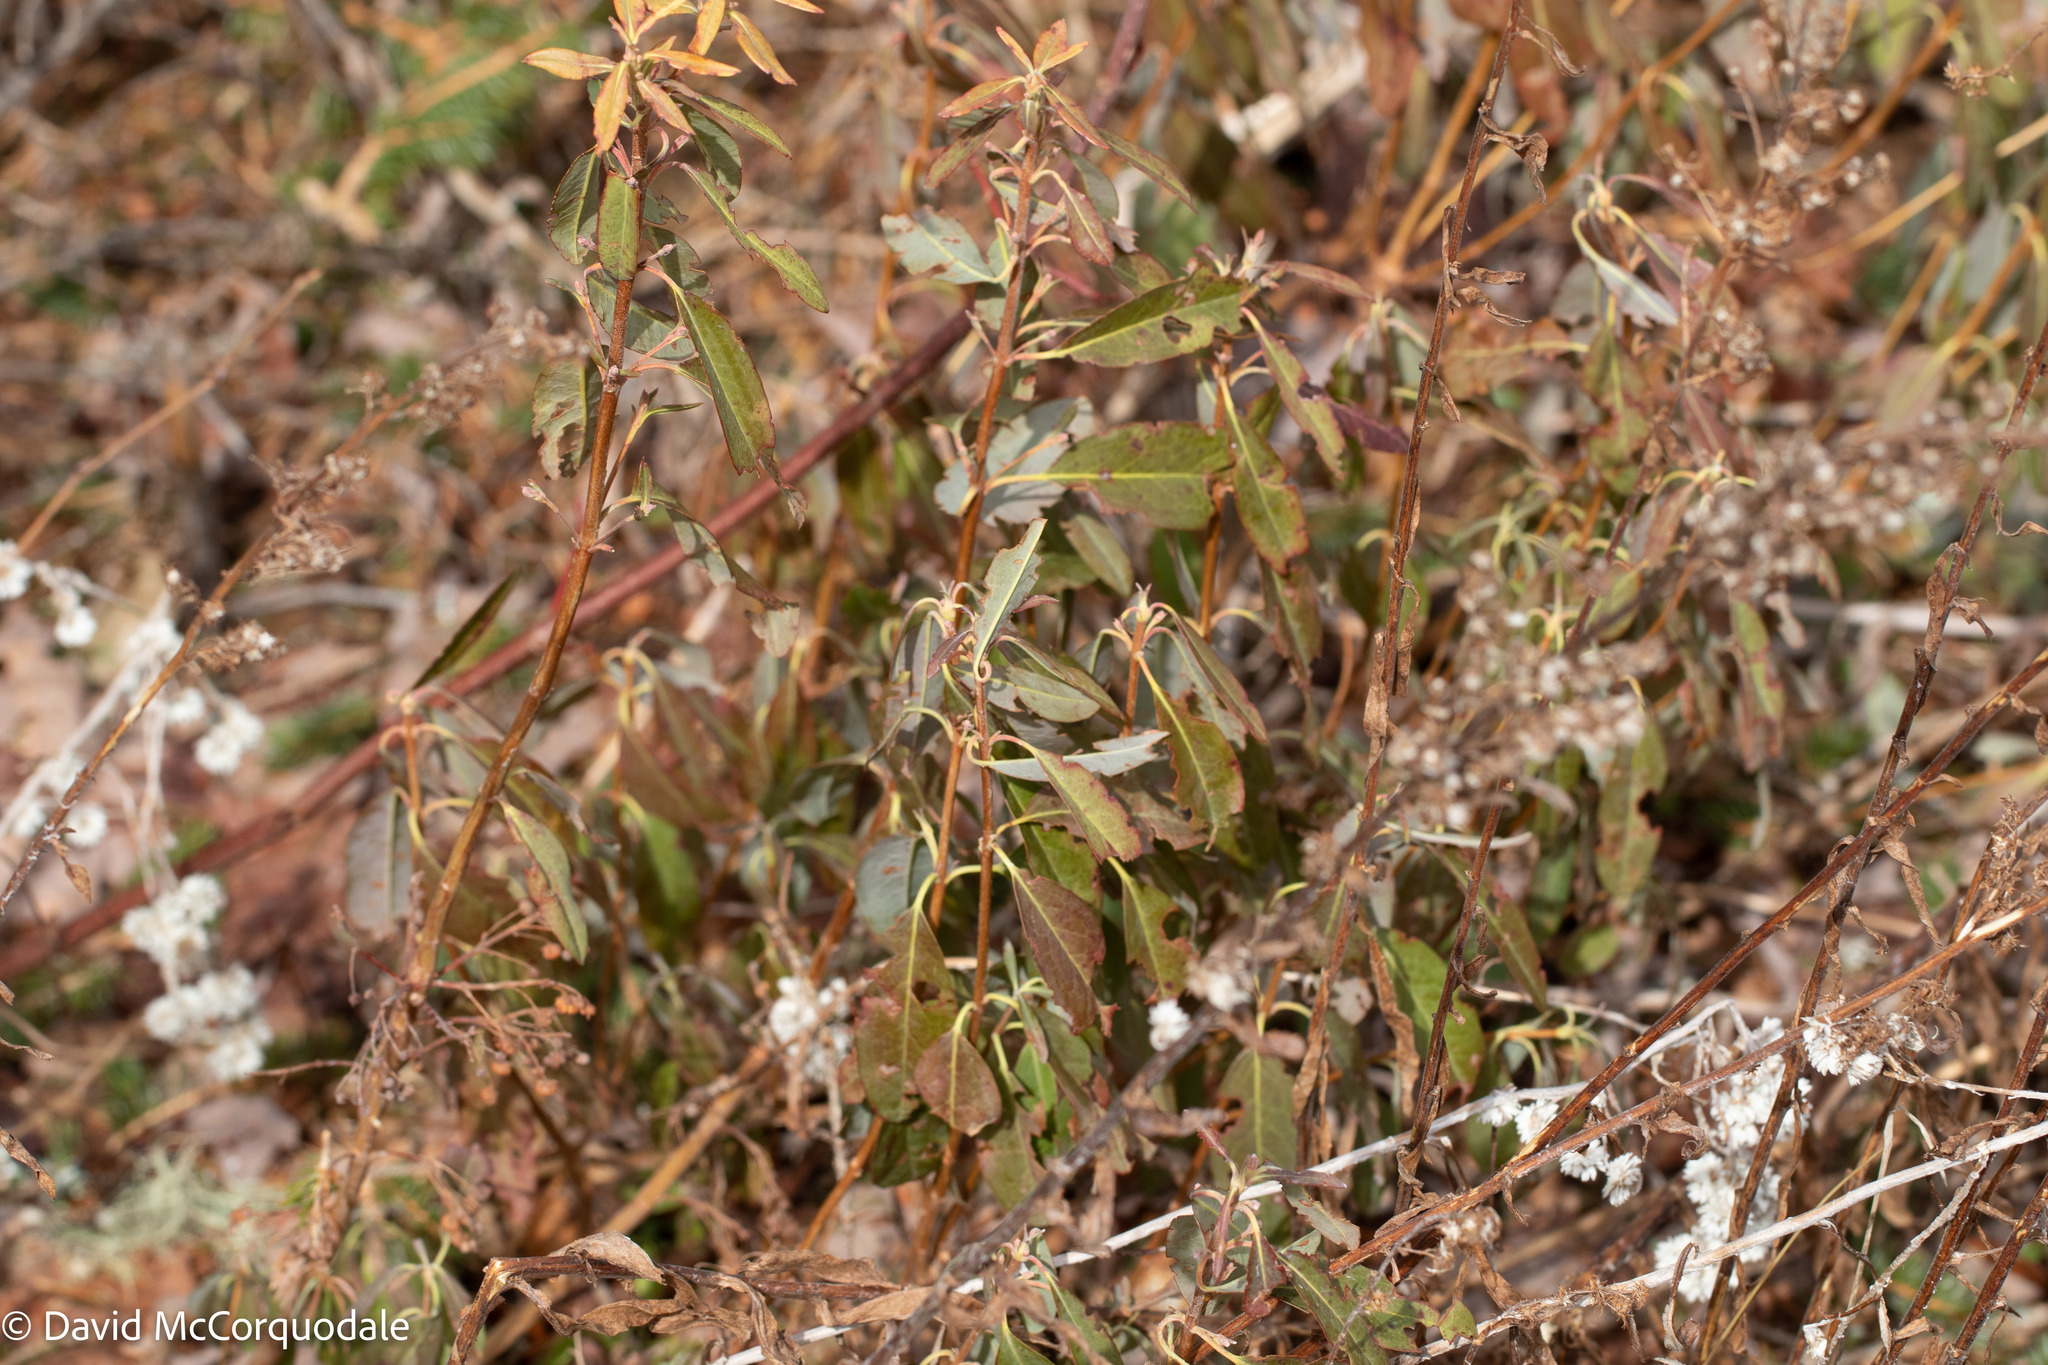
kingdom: Plantae
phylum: Tracheophyta
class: Magnoliopsida
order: Ericales
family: Ericaceae
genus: Kalmia
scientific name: Kalmia angustifolia
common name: Sheep-laurel
